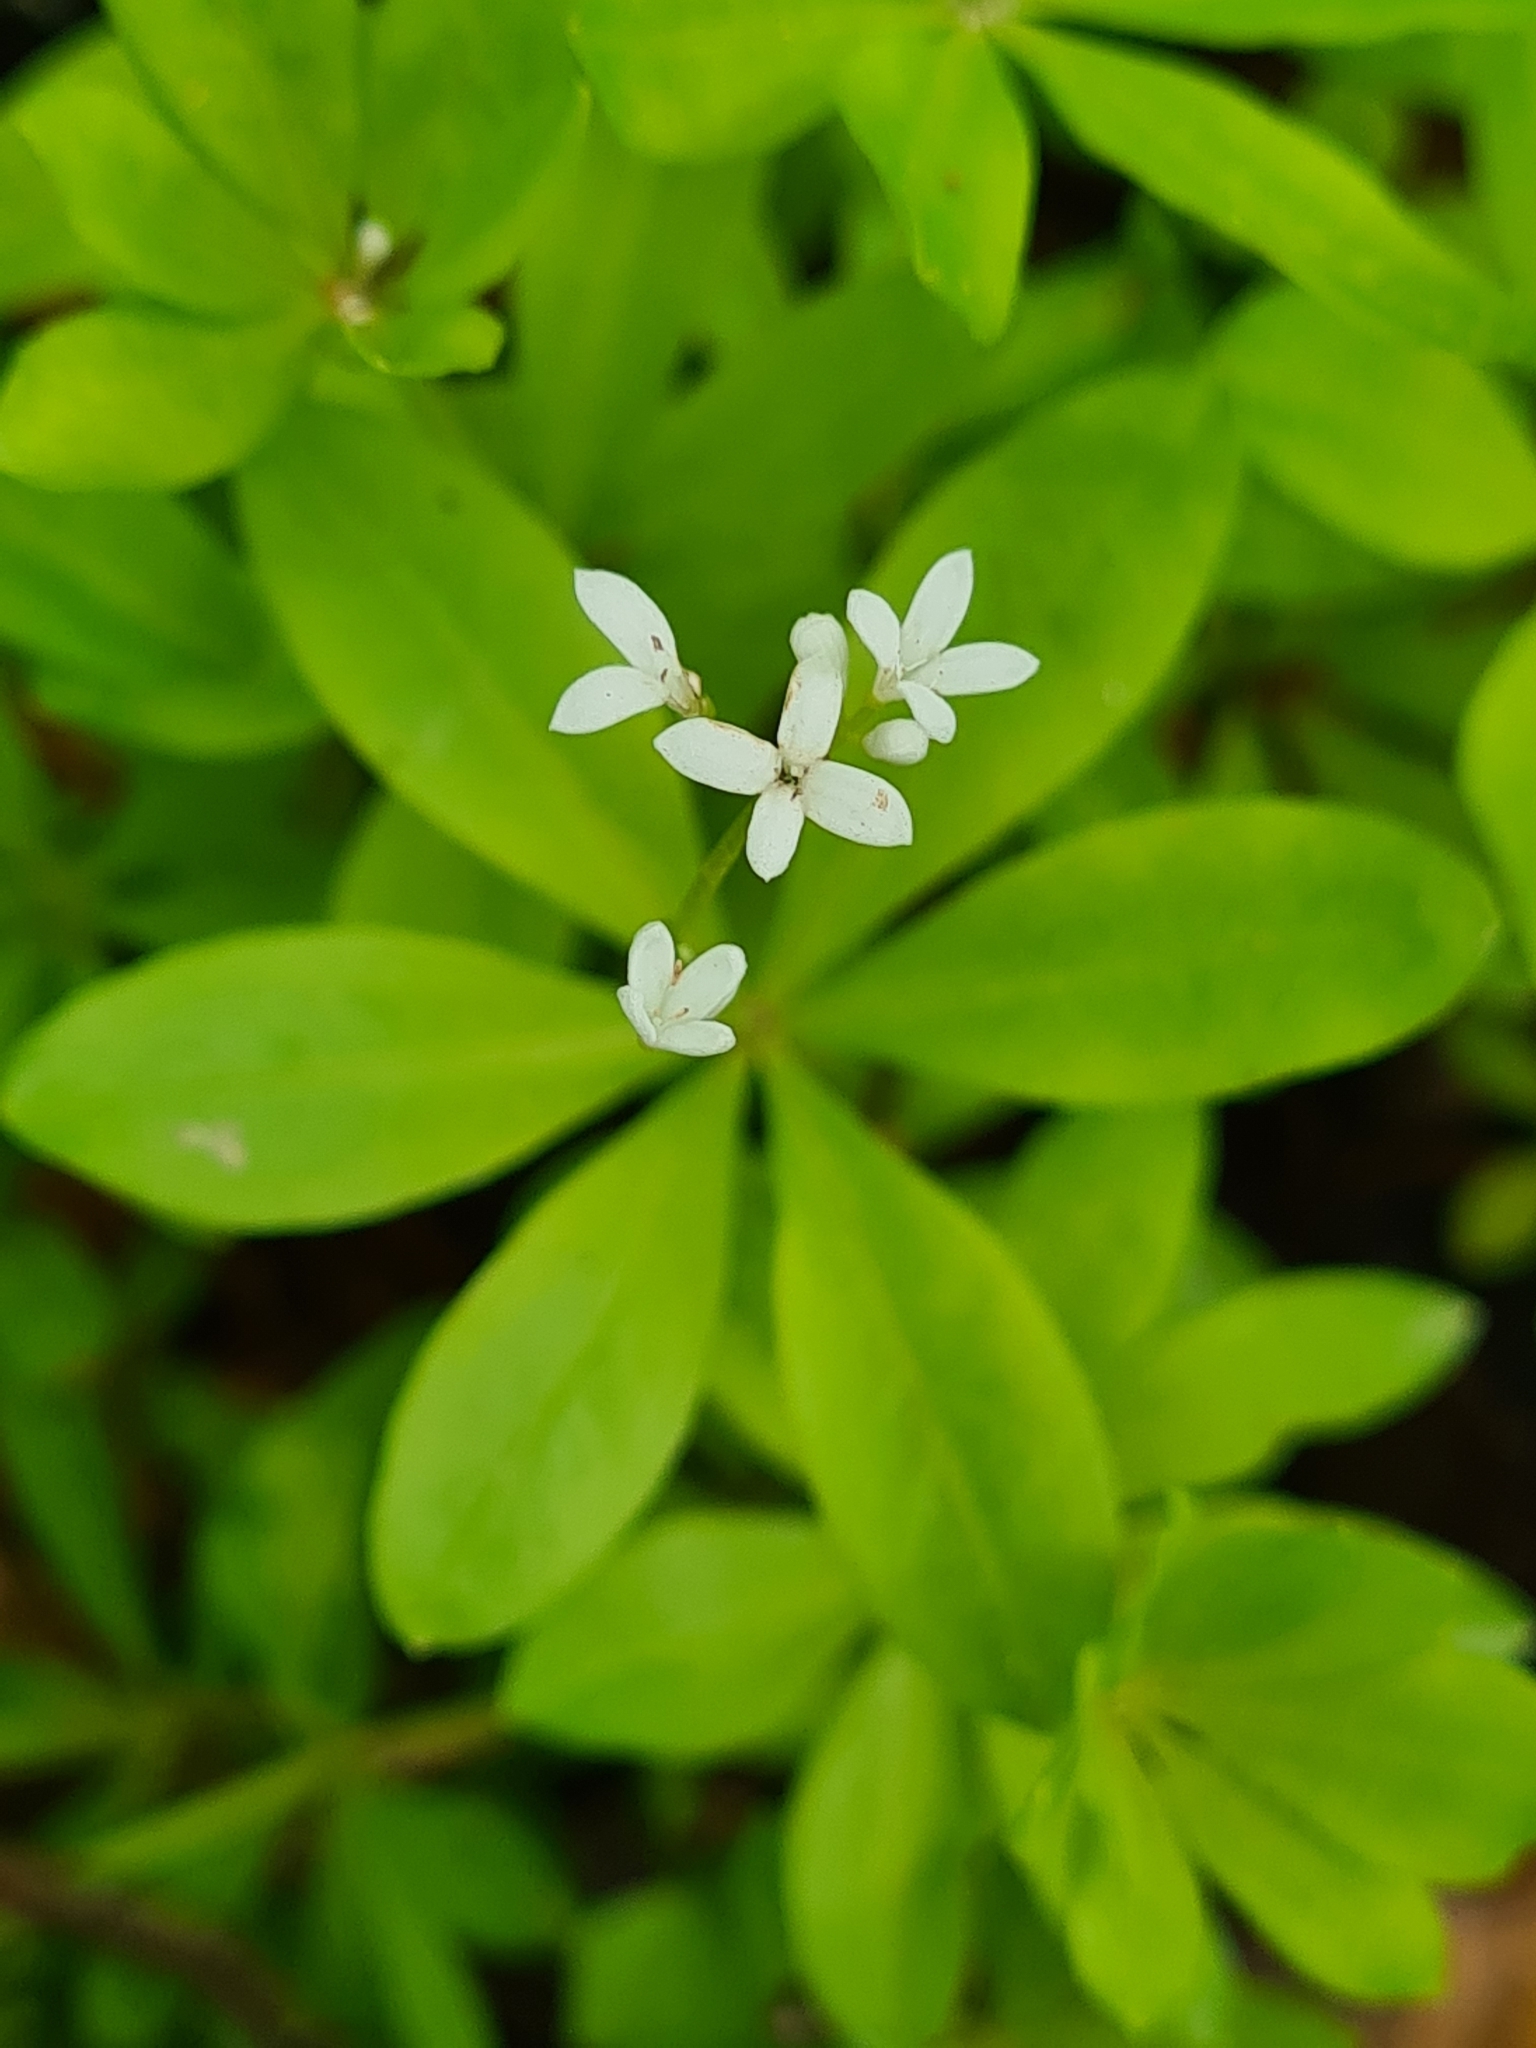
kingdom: Plantae
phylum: Tracheophyta
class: Magnoliopsida
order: Gentianales
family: Rubiaceae
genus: Galium
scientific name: Galium odoratum
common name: Sweet woodruff
